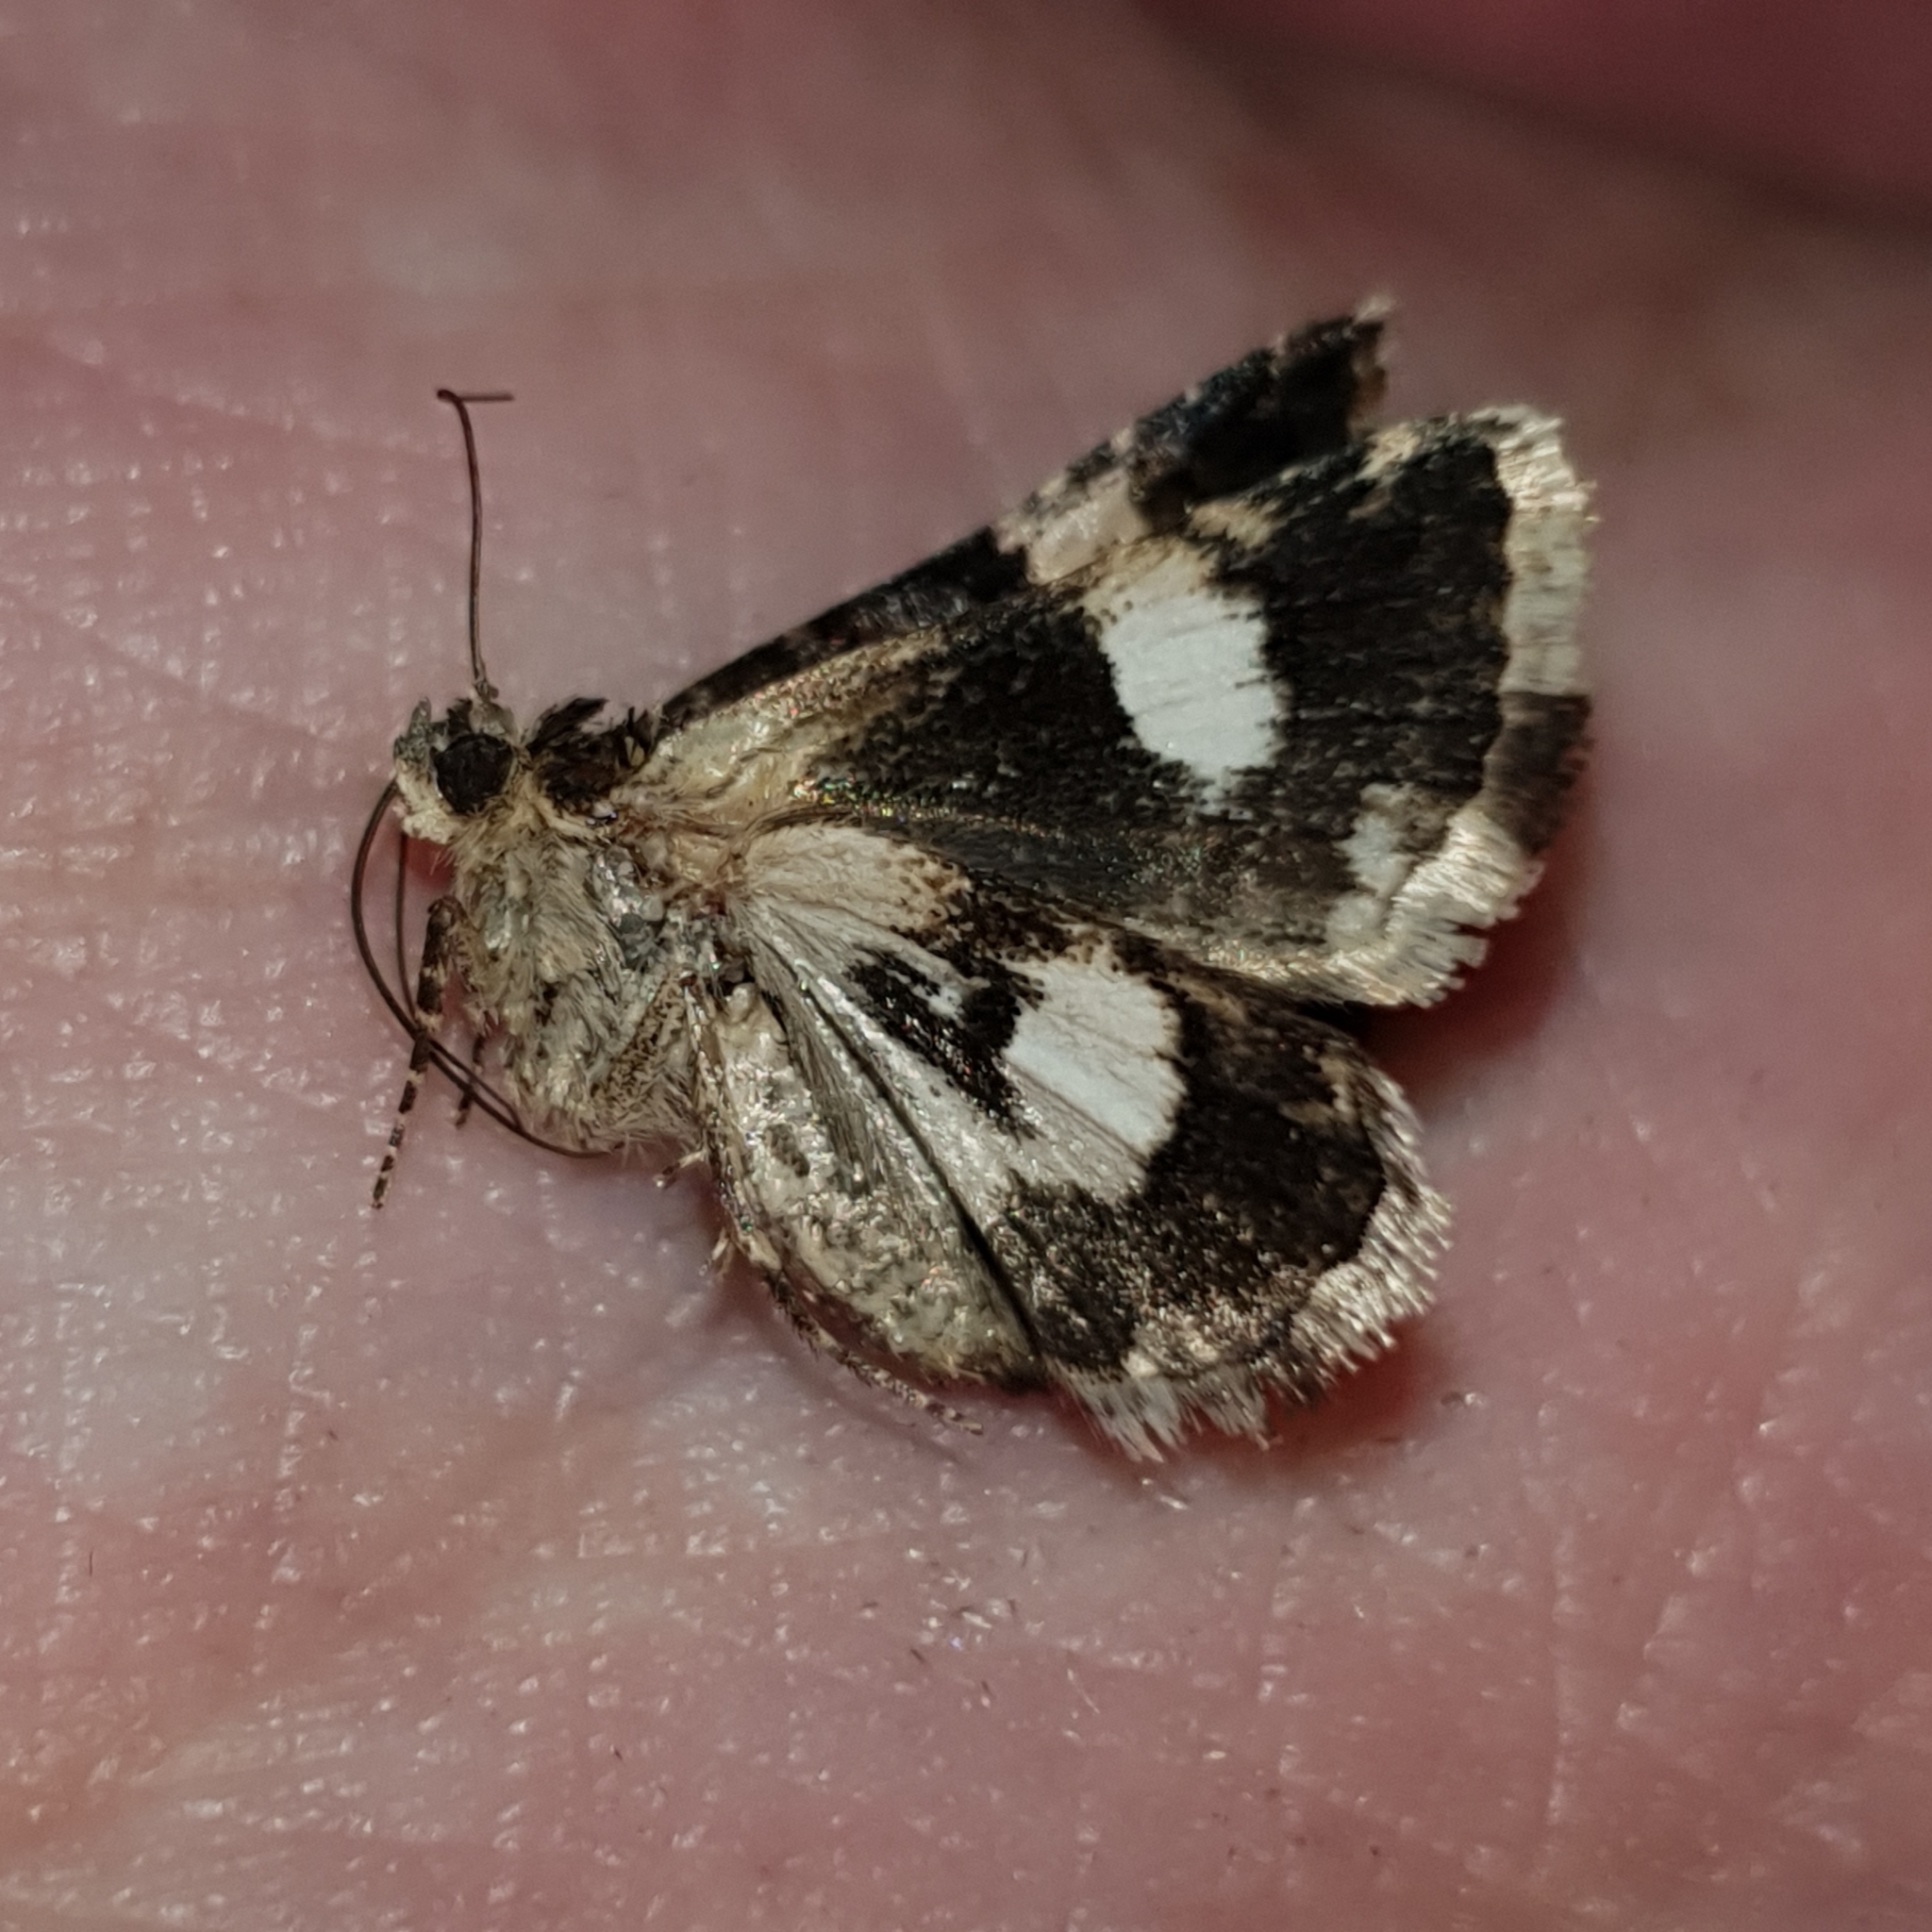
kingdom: Animalia
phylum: Arthropoda
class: Insecta
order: Lepidoptera
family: Erebidae
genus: Tyta
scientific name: Tyta luctuosa
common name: Four-spotted
